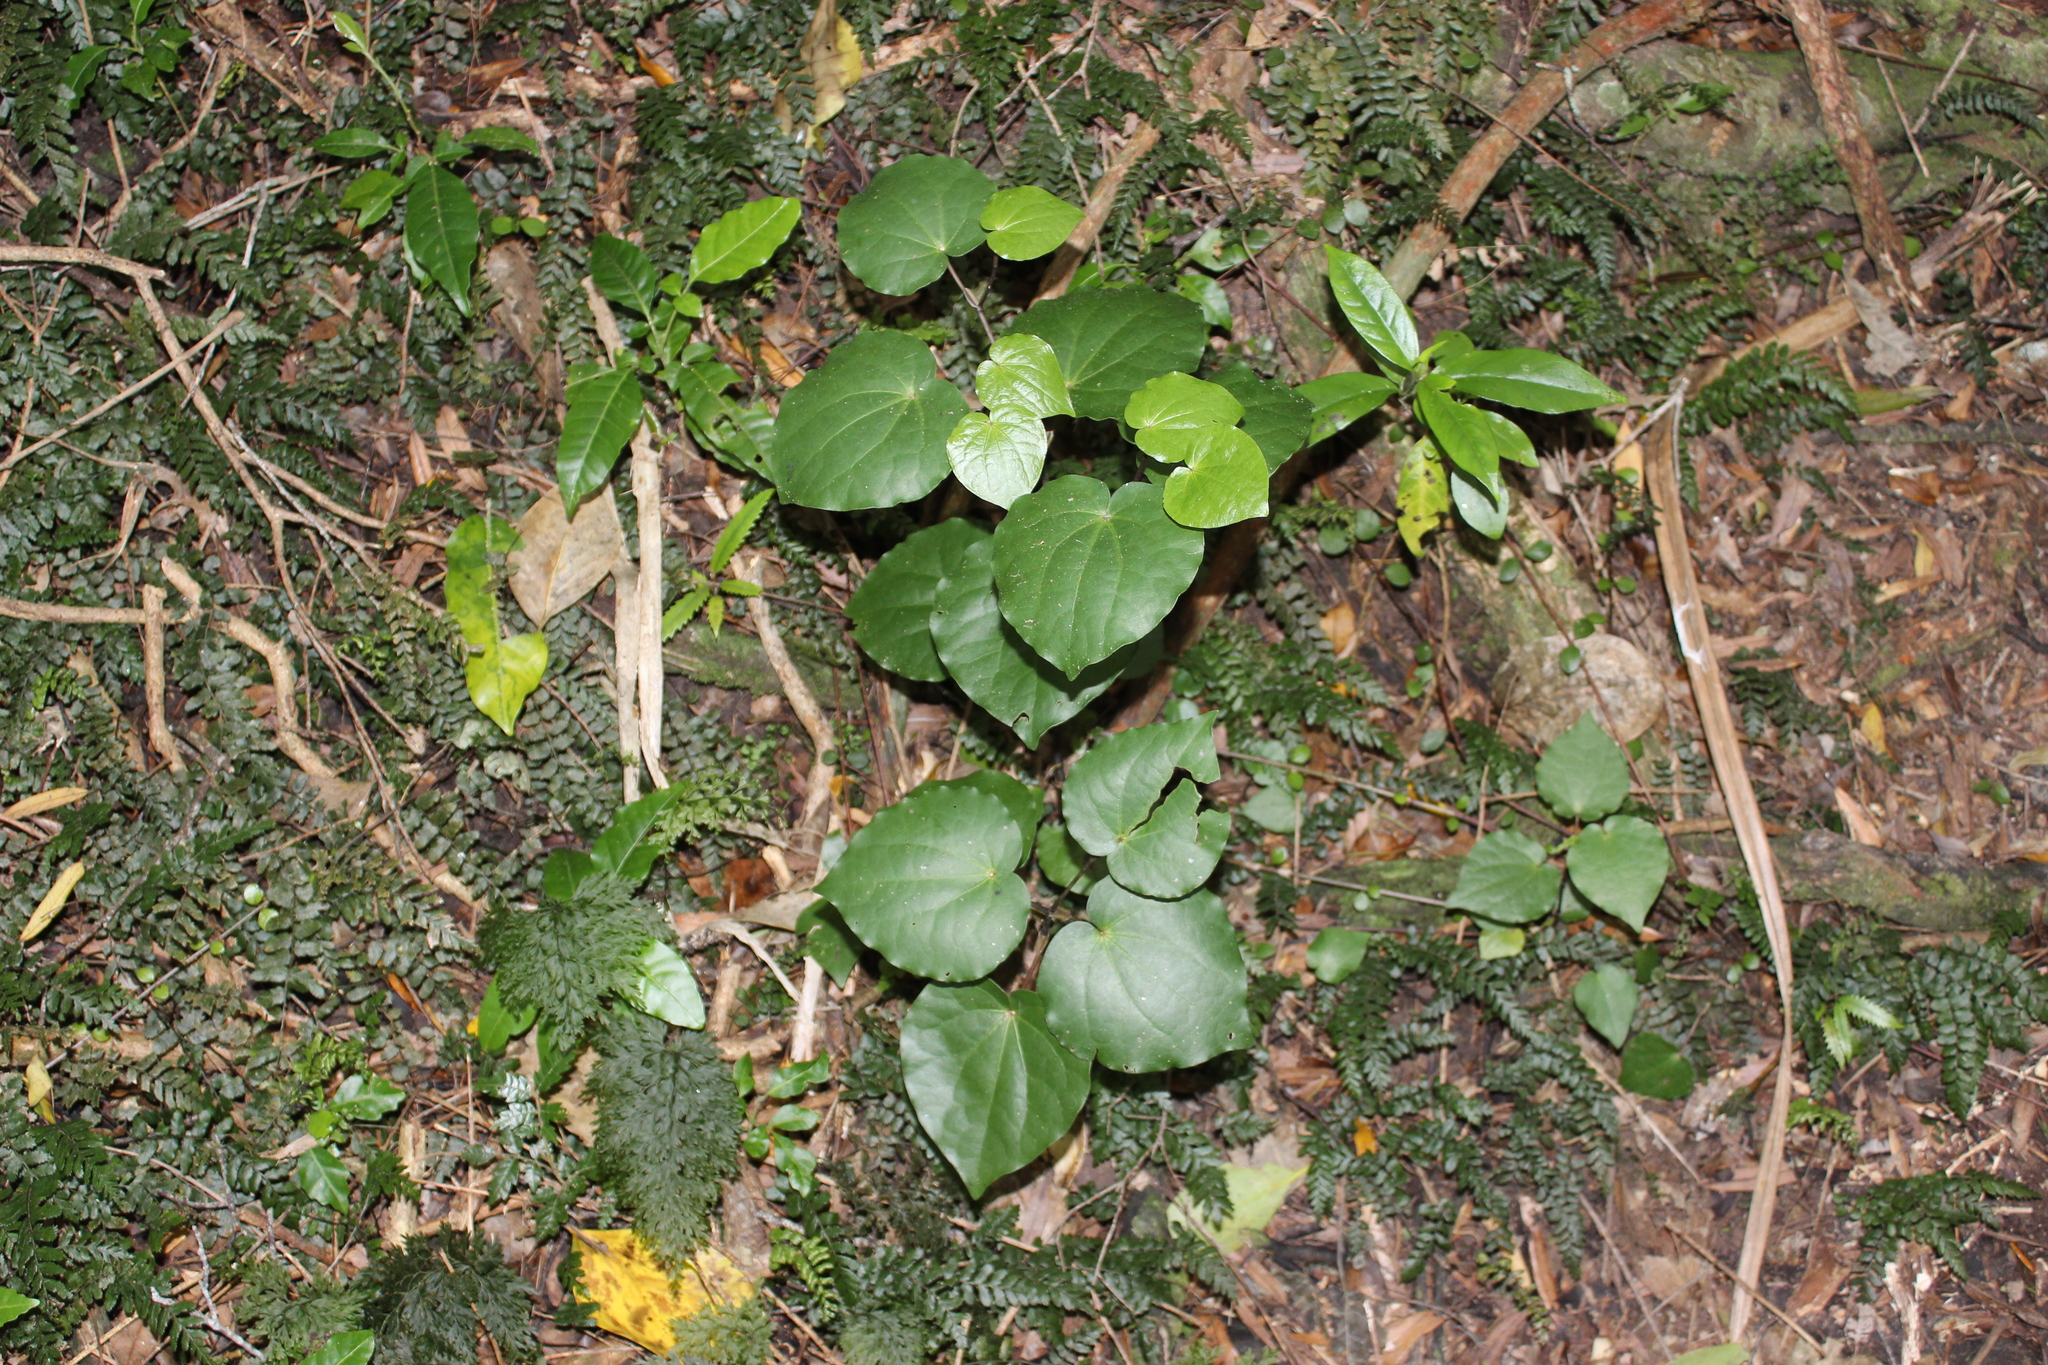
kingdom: Plantae
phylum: Tracheophyta
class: Magnoliopsida
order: Piperales
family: Piperaceae
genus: Macropiper
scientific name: Macropiper excelsum
